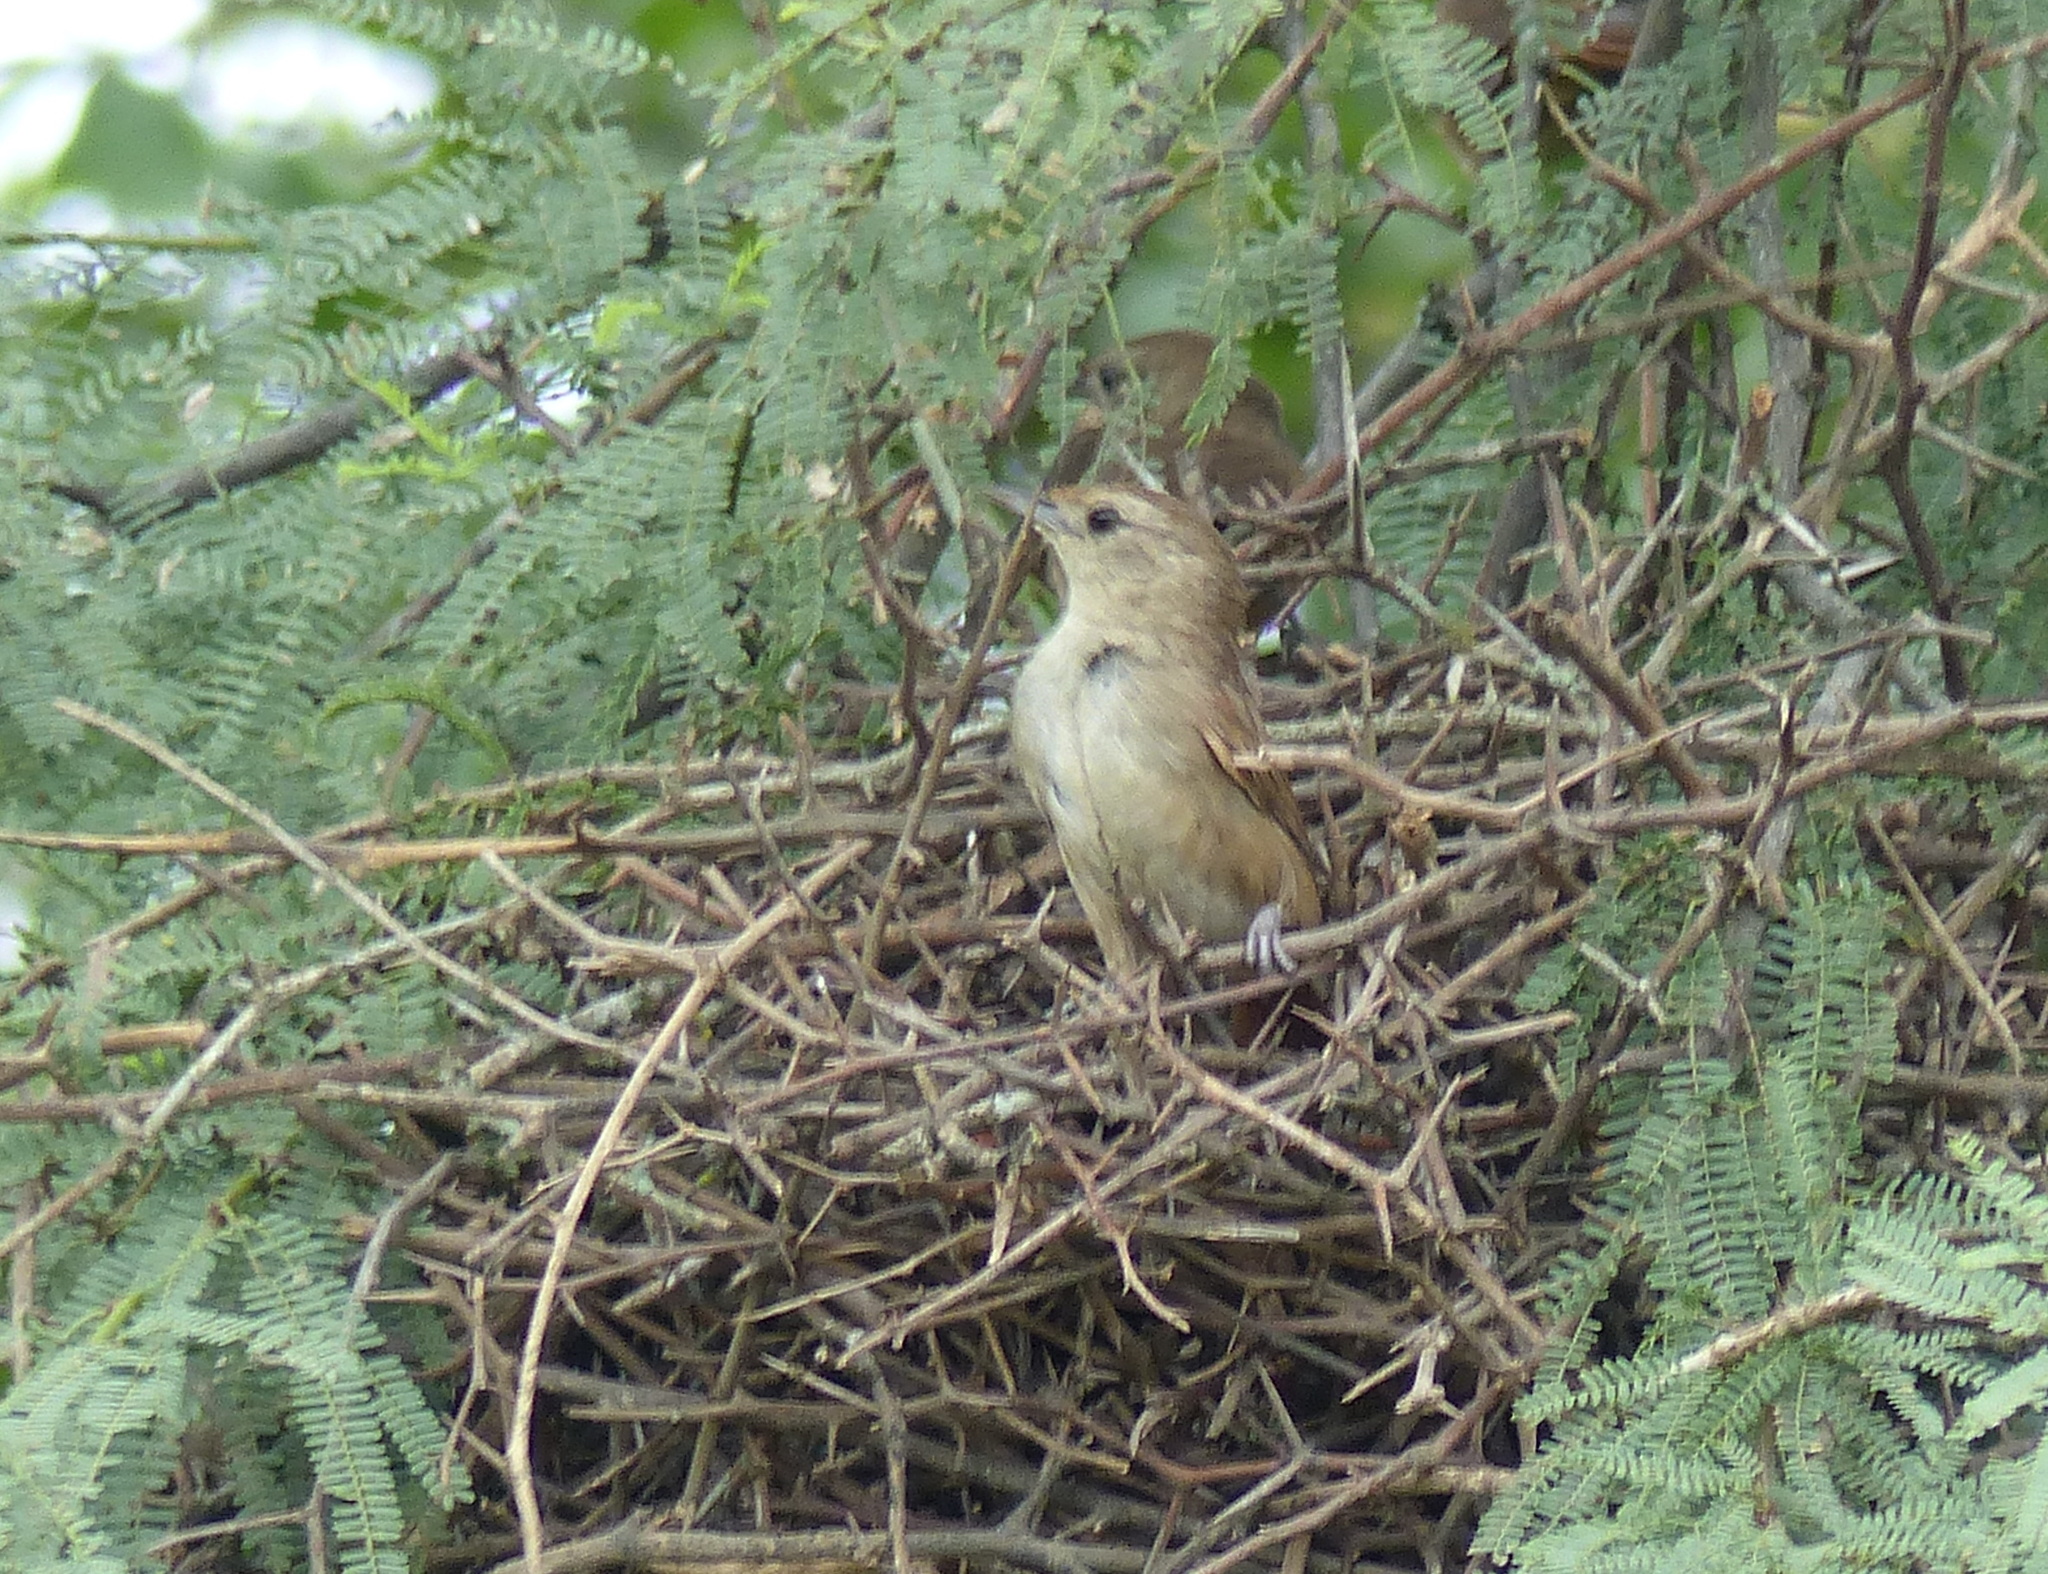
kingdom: Animalia
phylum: Chordata
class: Aves
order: Passeriformes
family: Furnariidae
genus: Phacellodomus
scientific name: Phacellodomus sibilatrix
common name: Little thornbird
